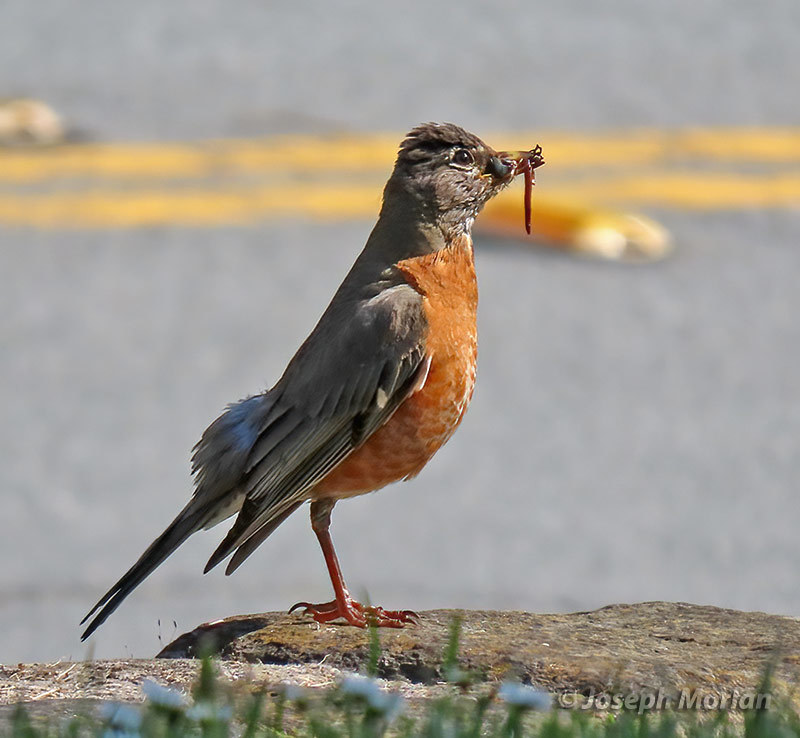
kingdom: Animalia
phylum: Chordata
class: Aves
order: Passeriformes
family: Turdidae
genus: Turdus
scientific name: Turdus migratorius
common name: American robin
